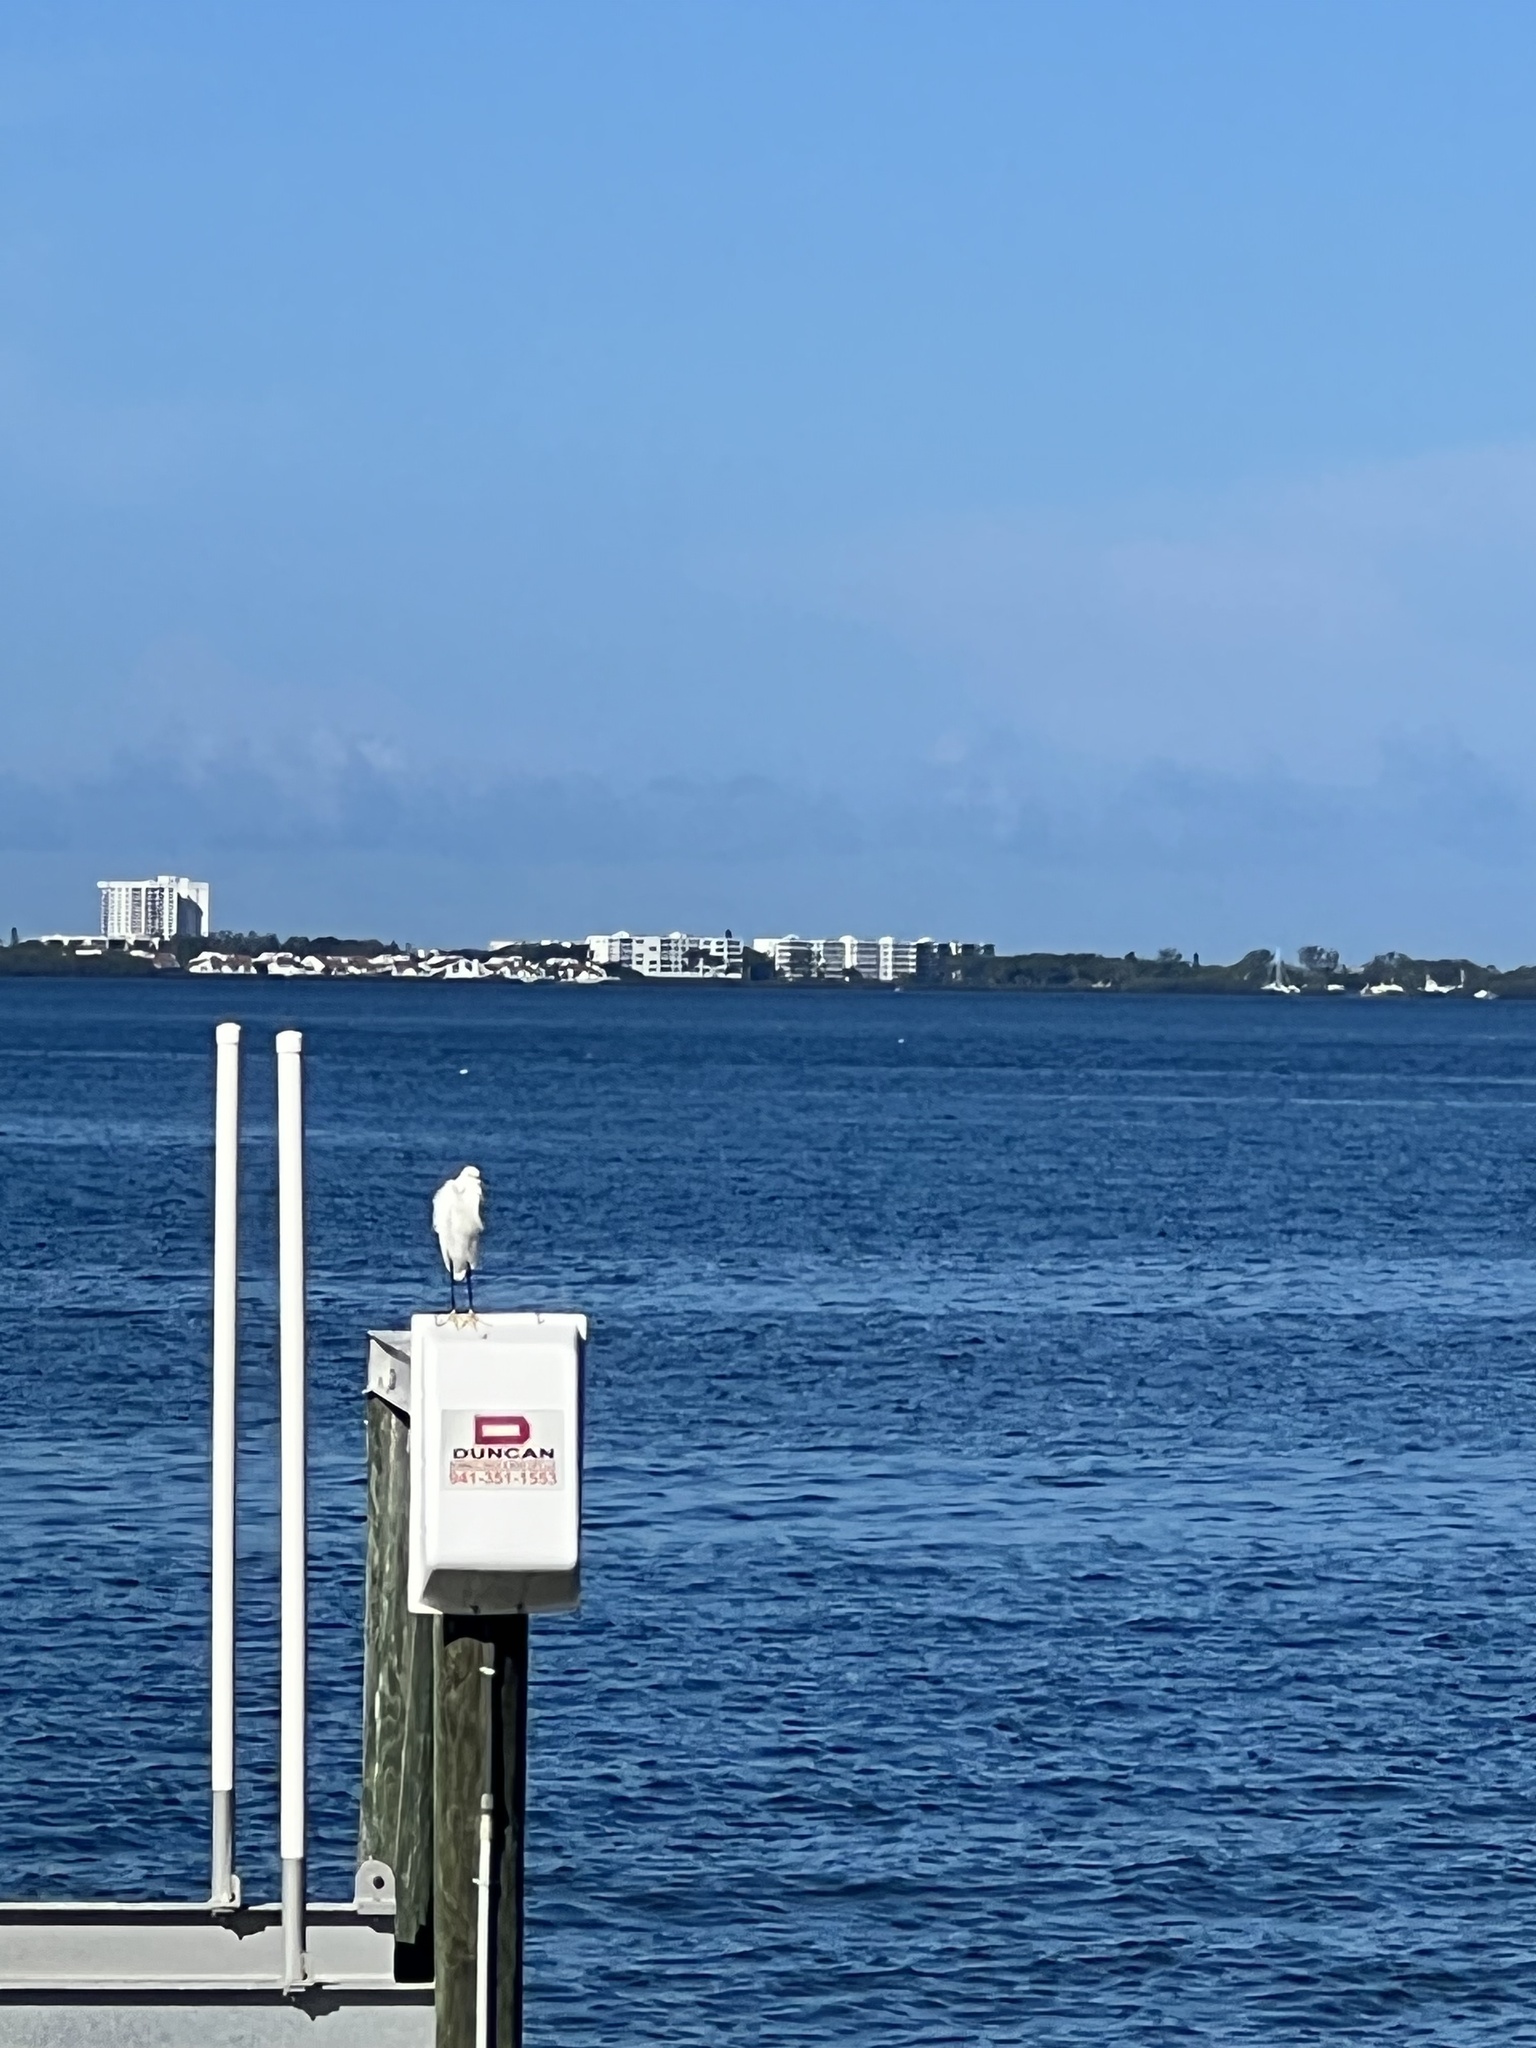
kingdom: Animalia
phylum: Chordata
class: Aves
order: Pelecaniformes
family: Ardeidae
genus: Egretta
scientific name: Egretta thula
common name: Snowy egret
